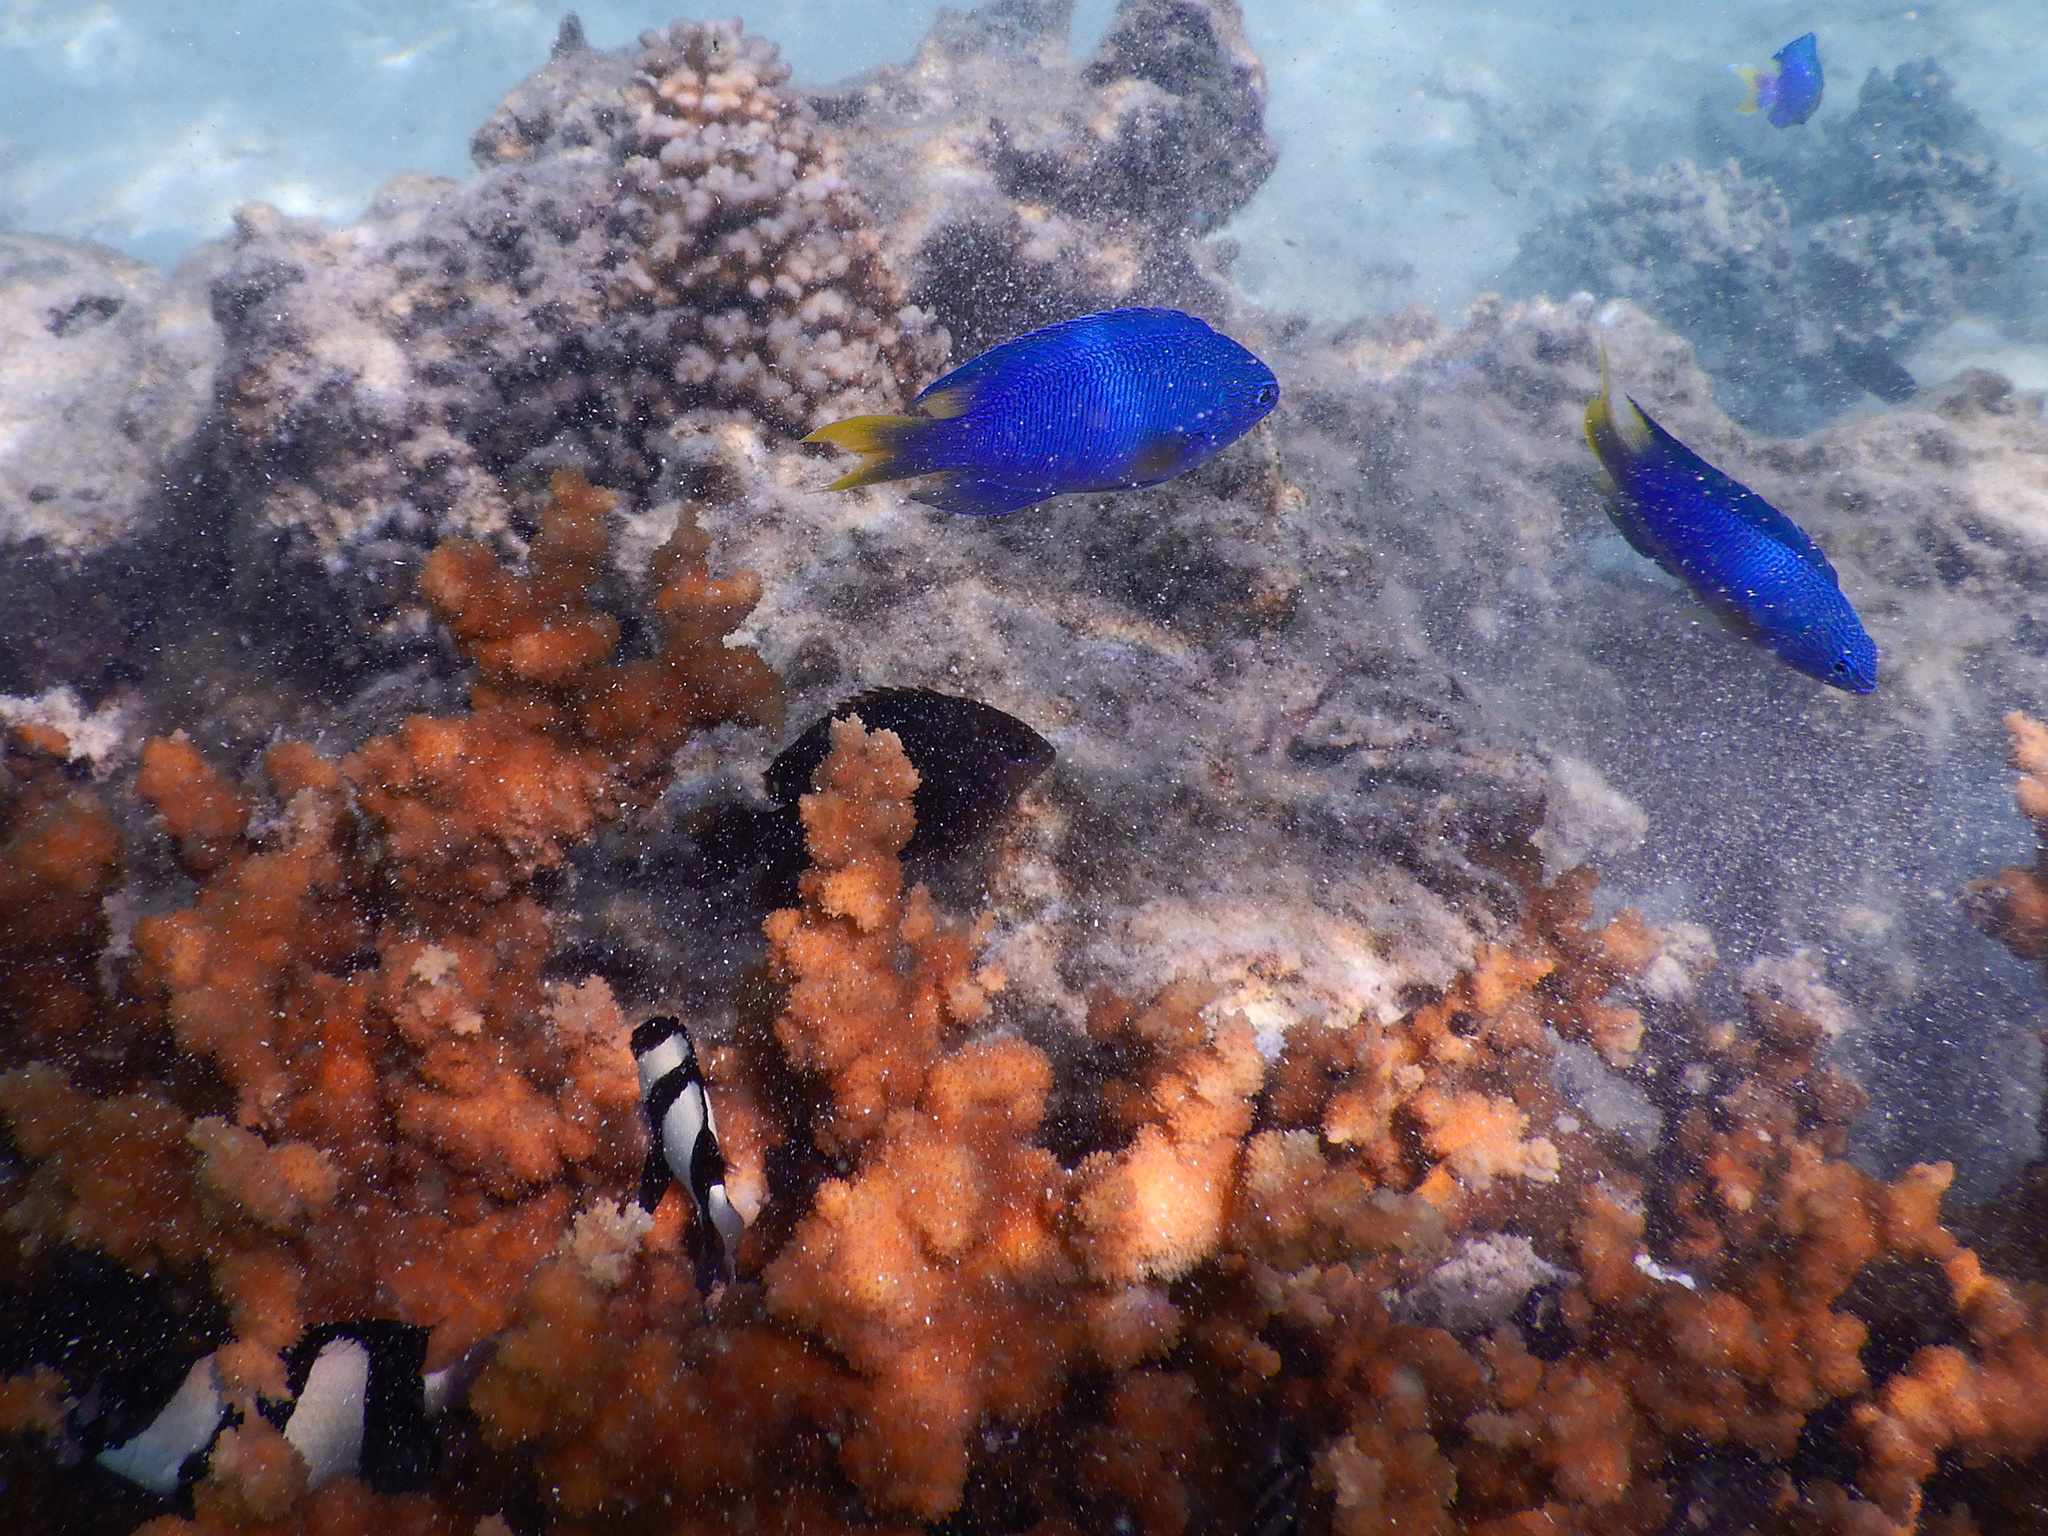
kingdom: Animalia
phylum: Chordata
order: Perciformes
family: Pomacentridae
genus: Pomacentrus
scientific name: Pomacentrus pavo
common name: Sapphire damsel
